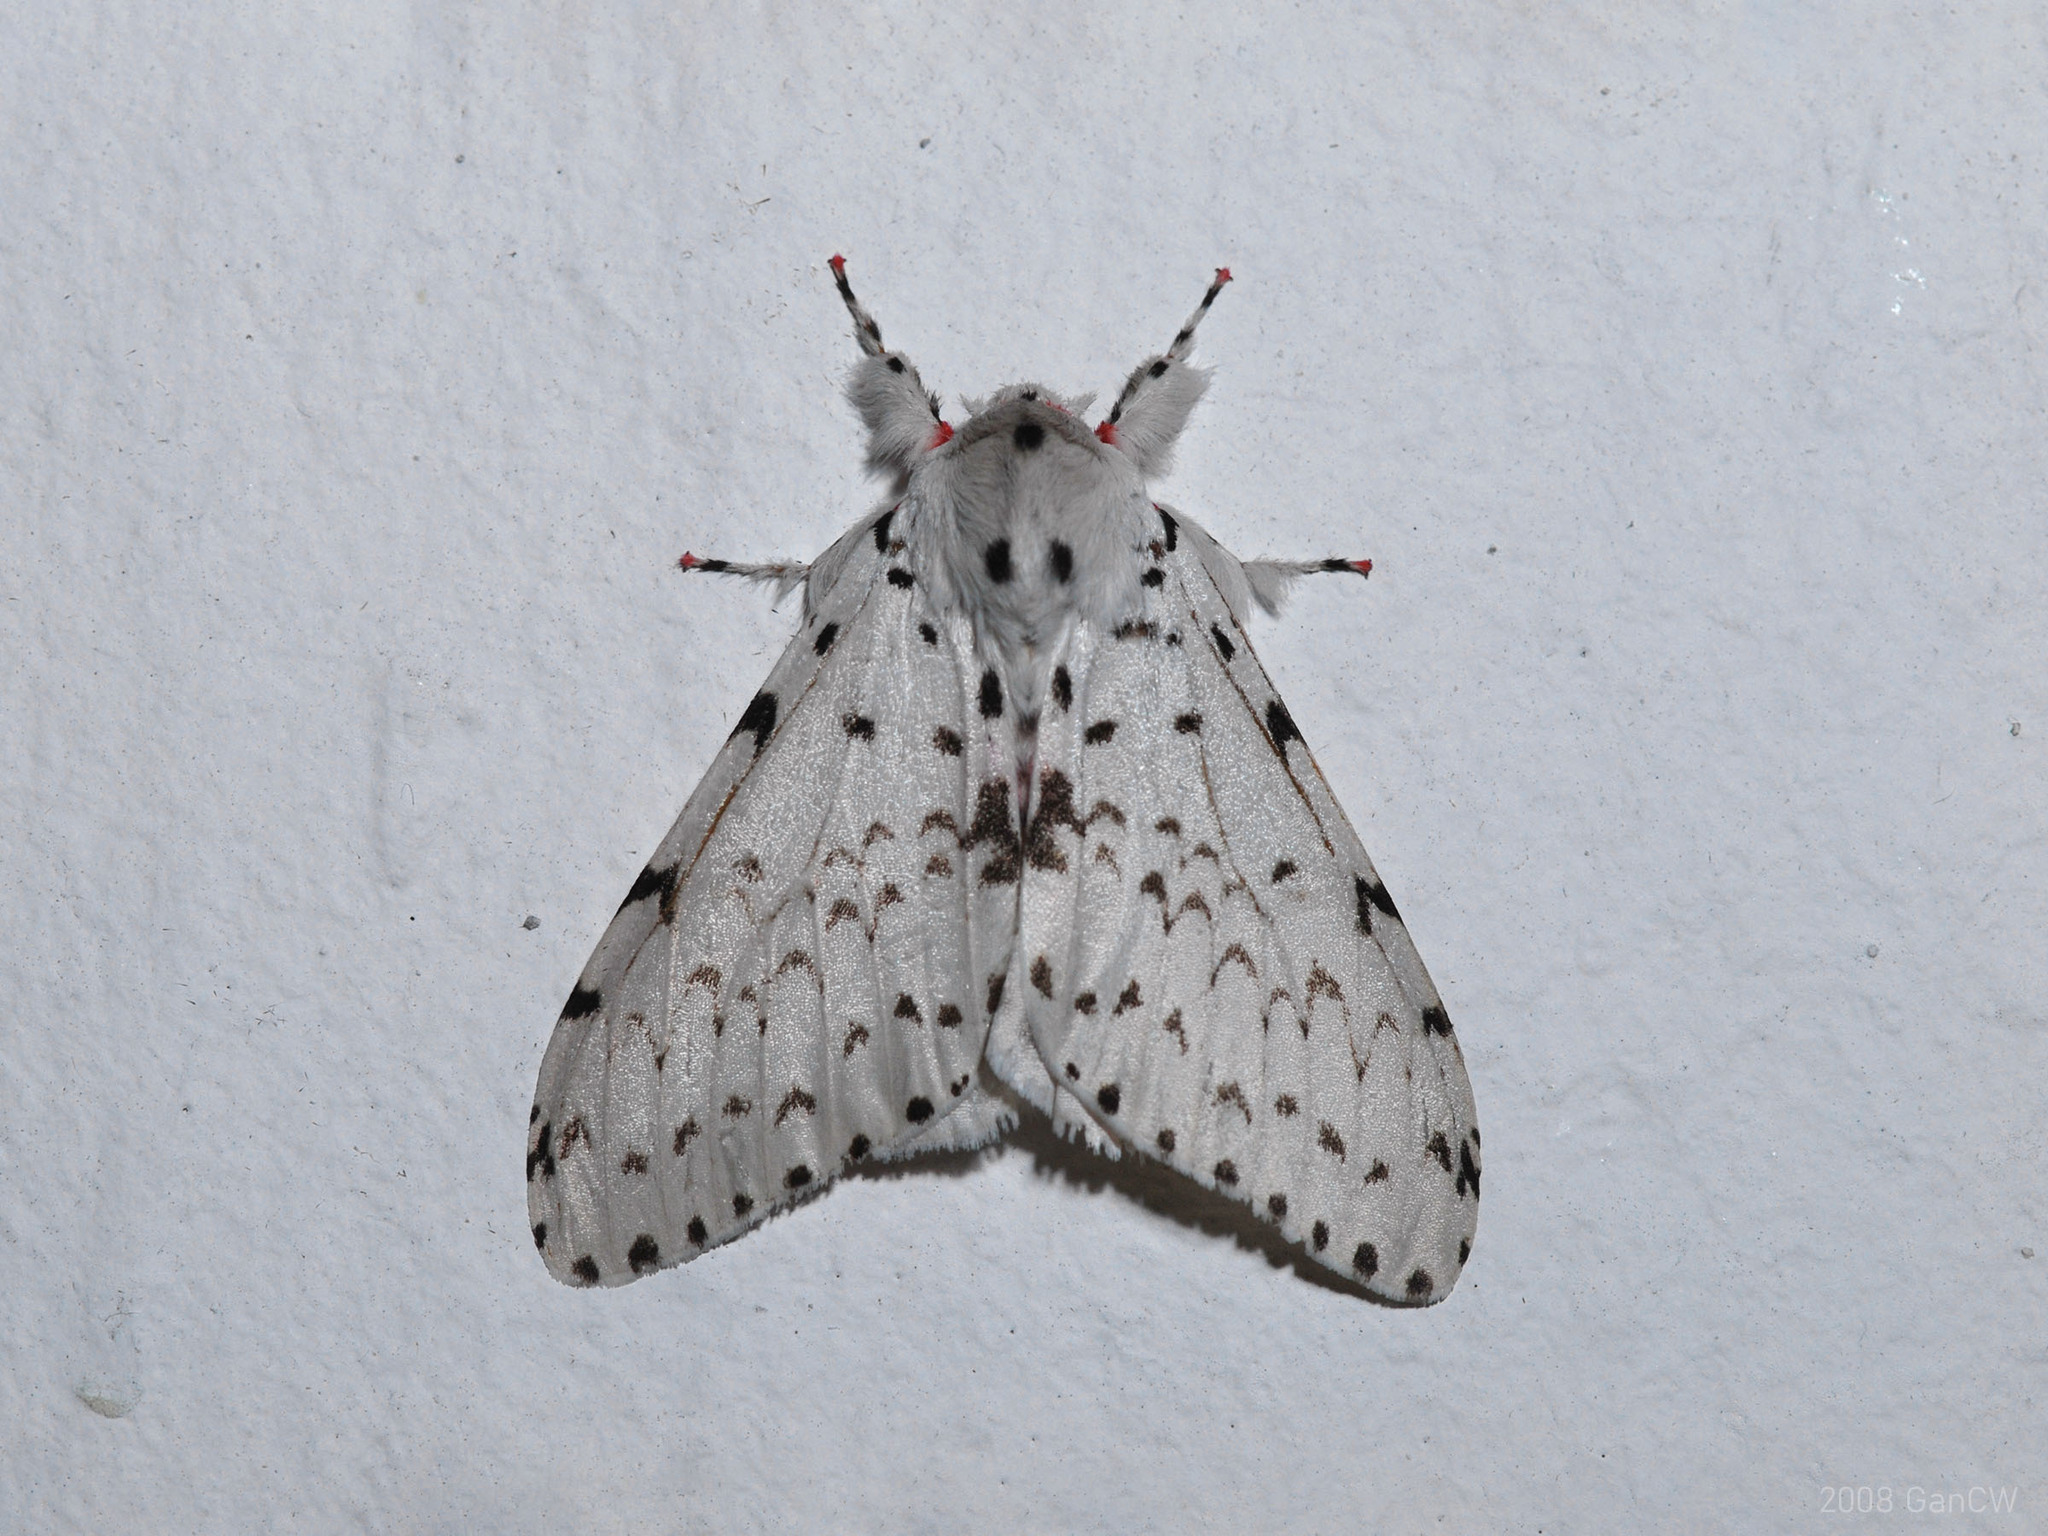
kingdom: Animalia
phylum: Arthropoda
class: Insecta
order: Lepidoptera
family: Erebidae
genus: Lymantria
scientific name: Lymantria marginalis
